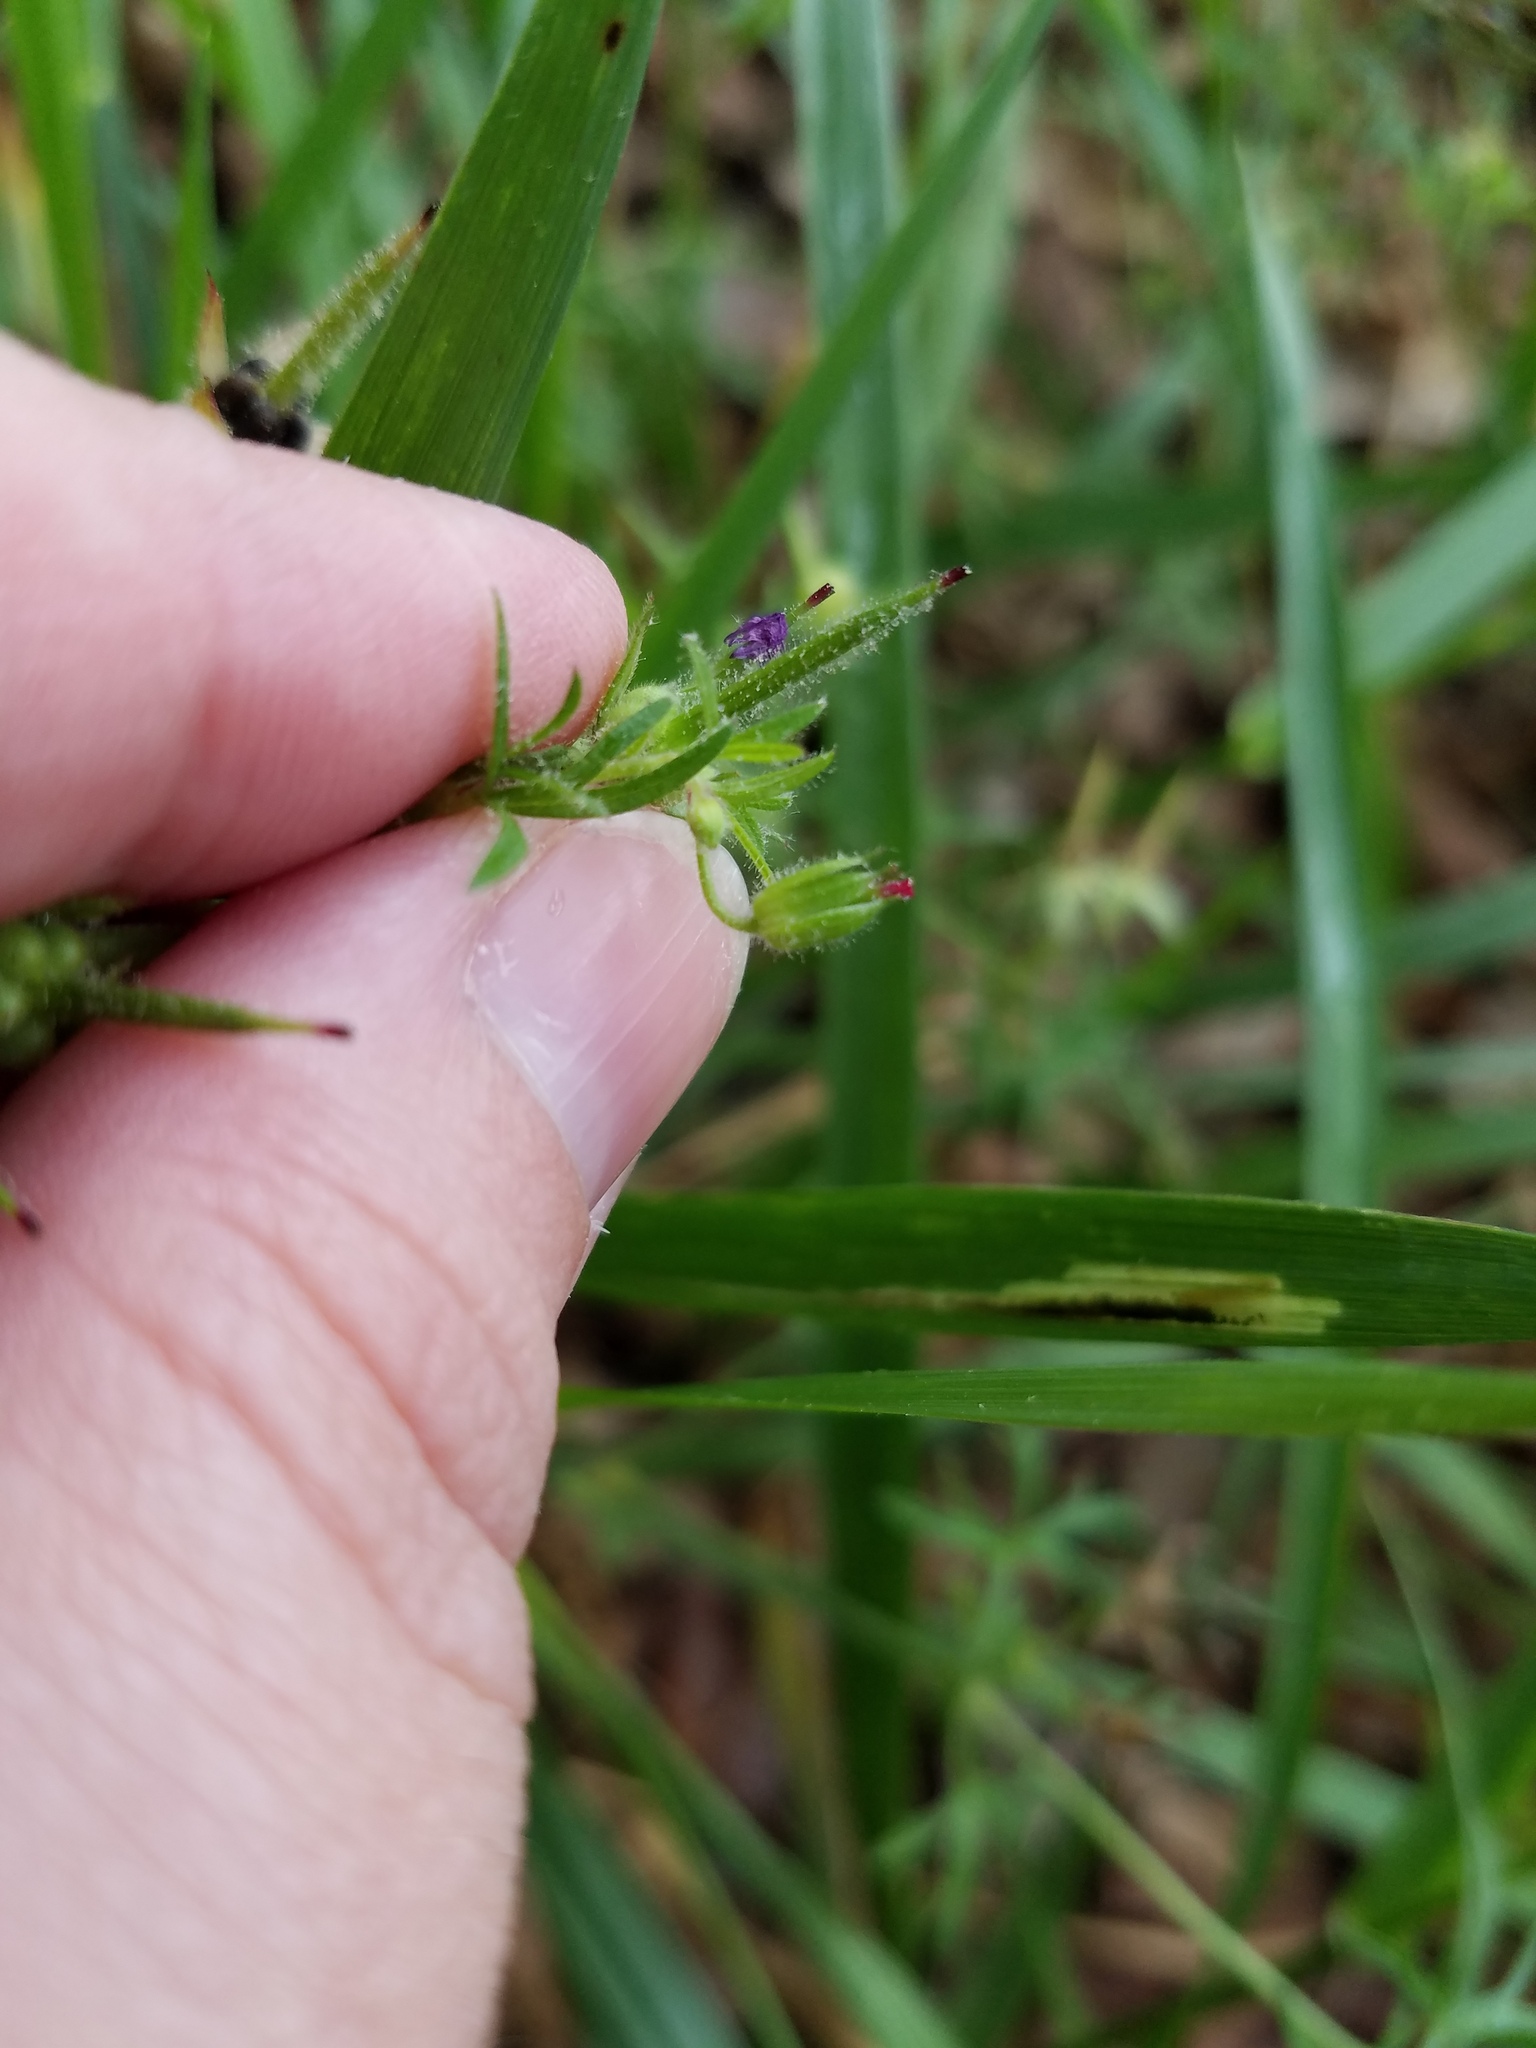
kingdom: Plantae
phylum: Tracheophyta
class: Magnoliopsida
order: Geraniales
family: Geraniaceae
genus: Geranium
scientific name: Geranium dissectum
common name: Cut-leaved crane's-bill
